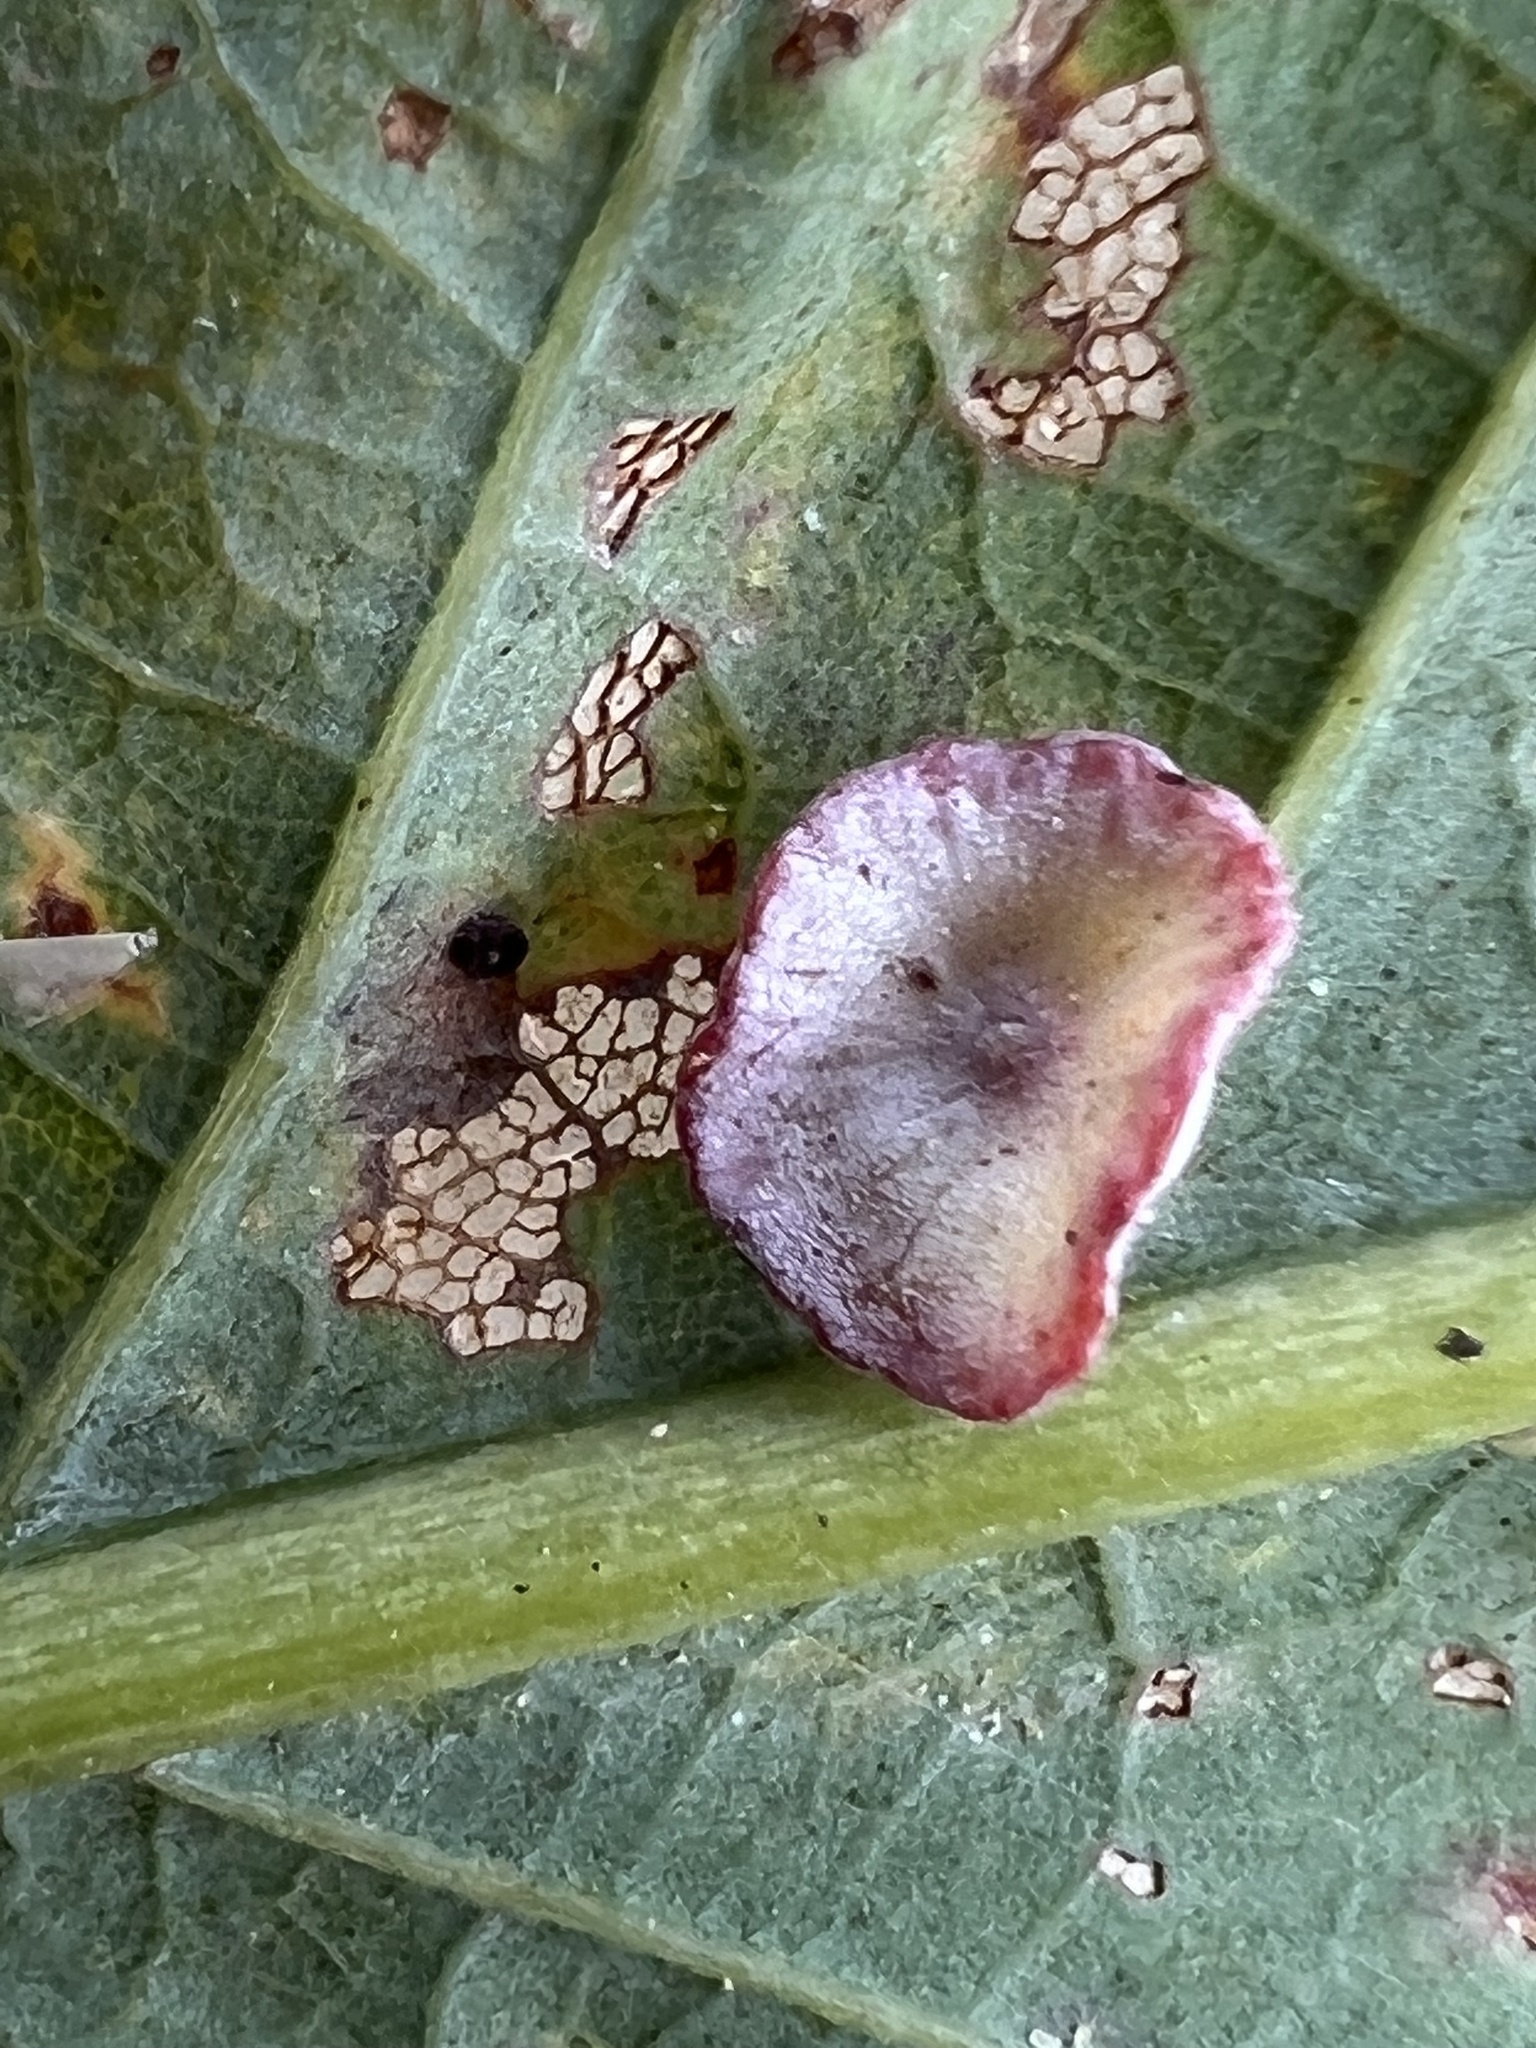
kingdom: Animalia
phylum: Arthropoda
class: Insecta
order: Hymenoptera
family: Cynipidae
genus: Phylloteras
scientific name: Phylloteras poculum
